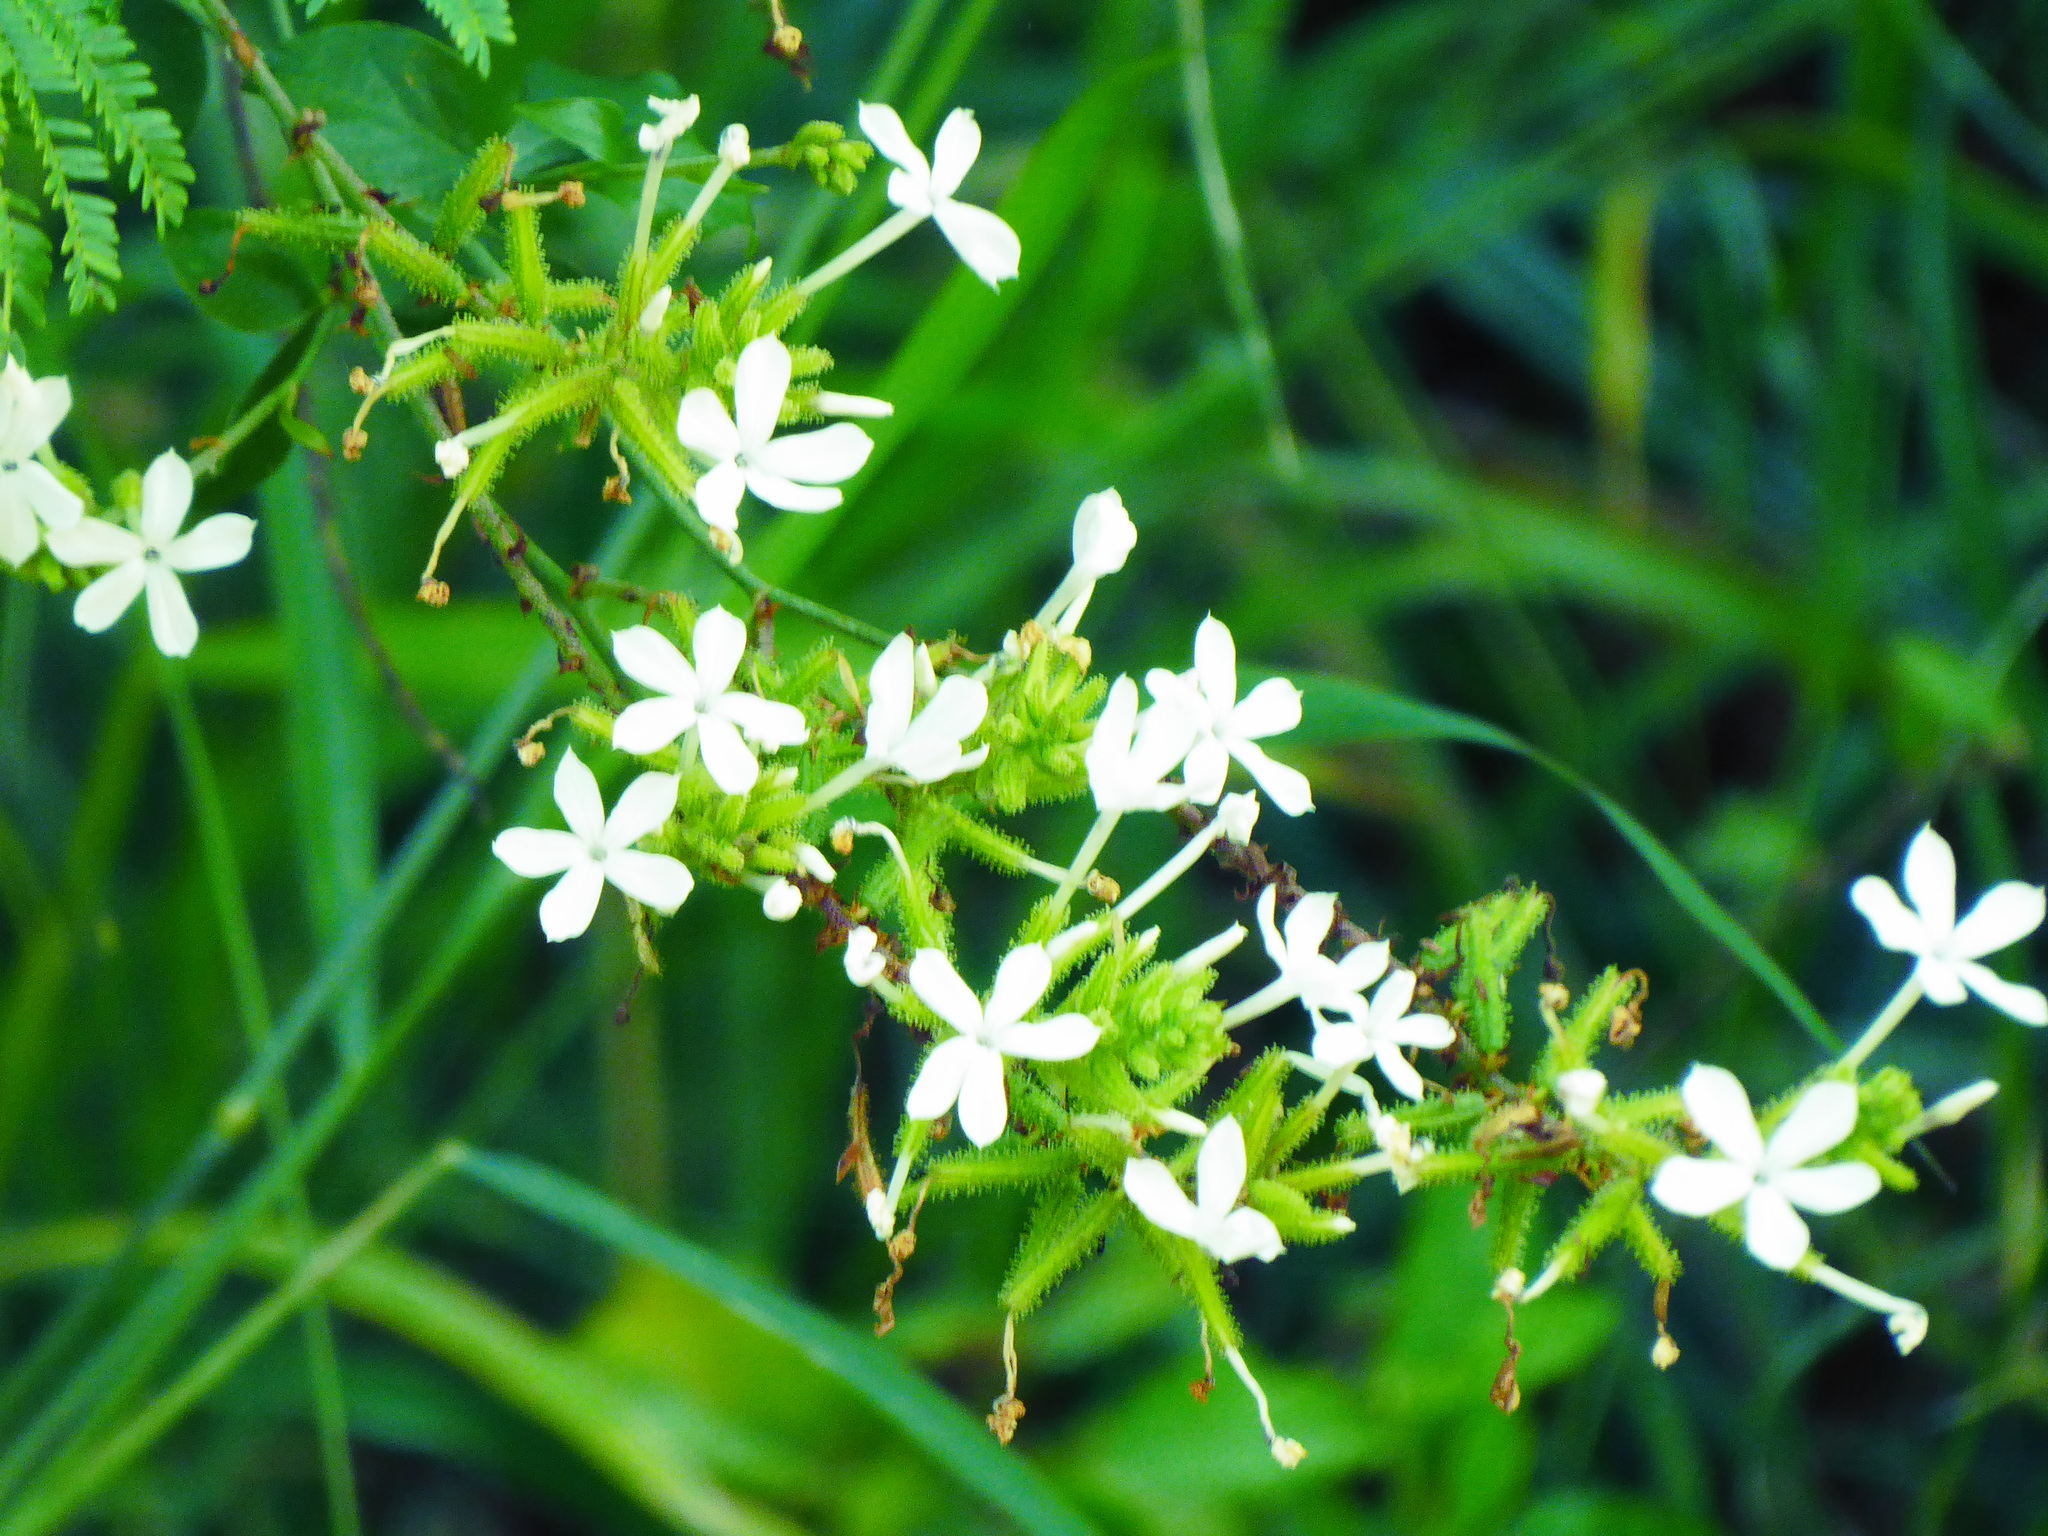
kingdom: Plantae
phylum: Tracheophyta
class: Magnoliopsida
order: Caryophyllales
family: Plumbaginaceae
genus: Plumbago
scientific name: Plumbago zeylanica
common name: Doctorbush
